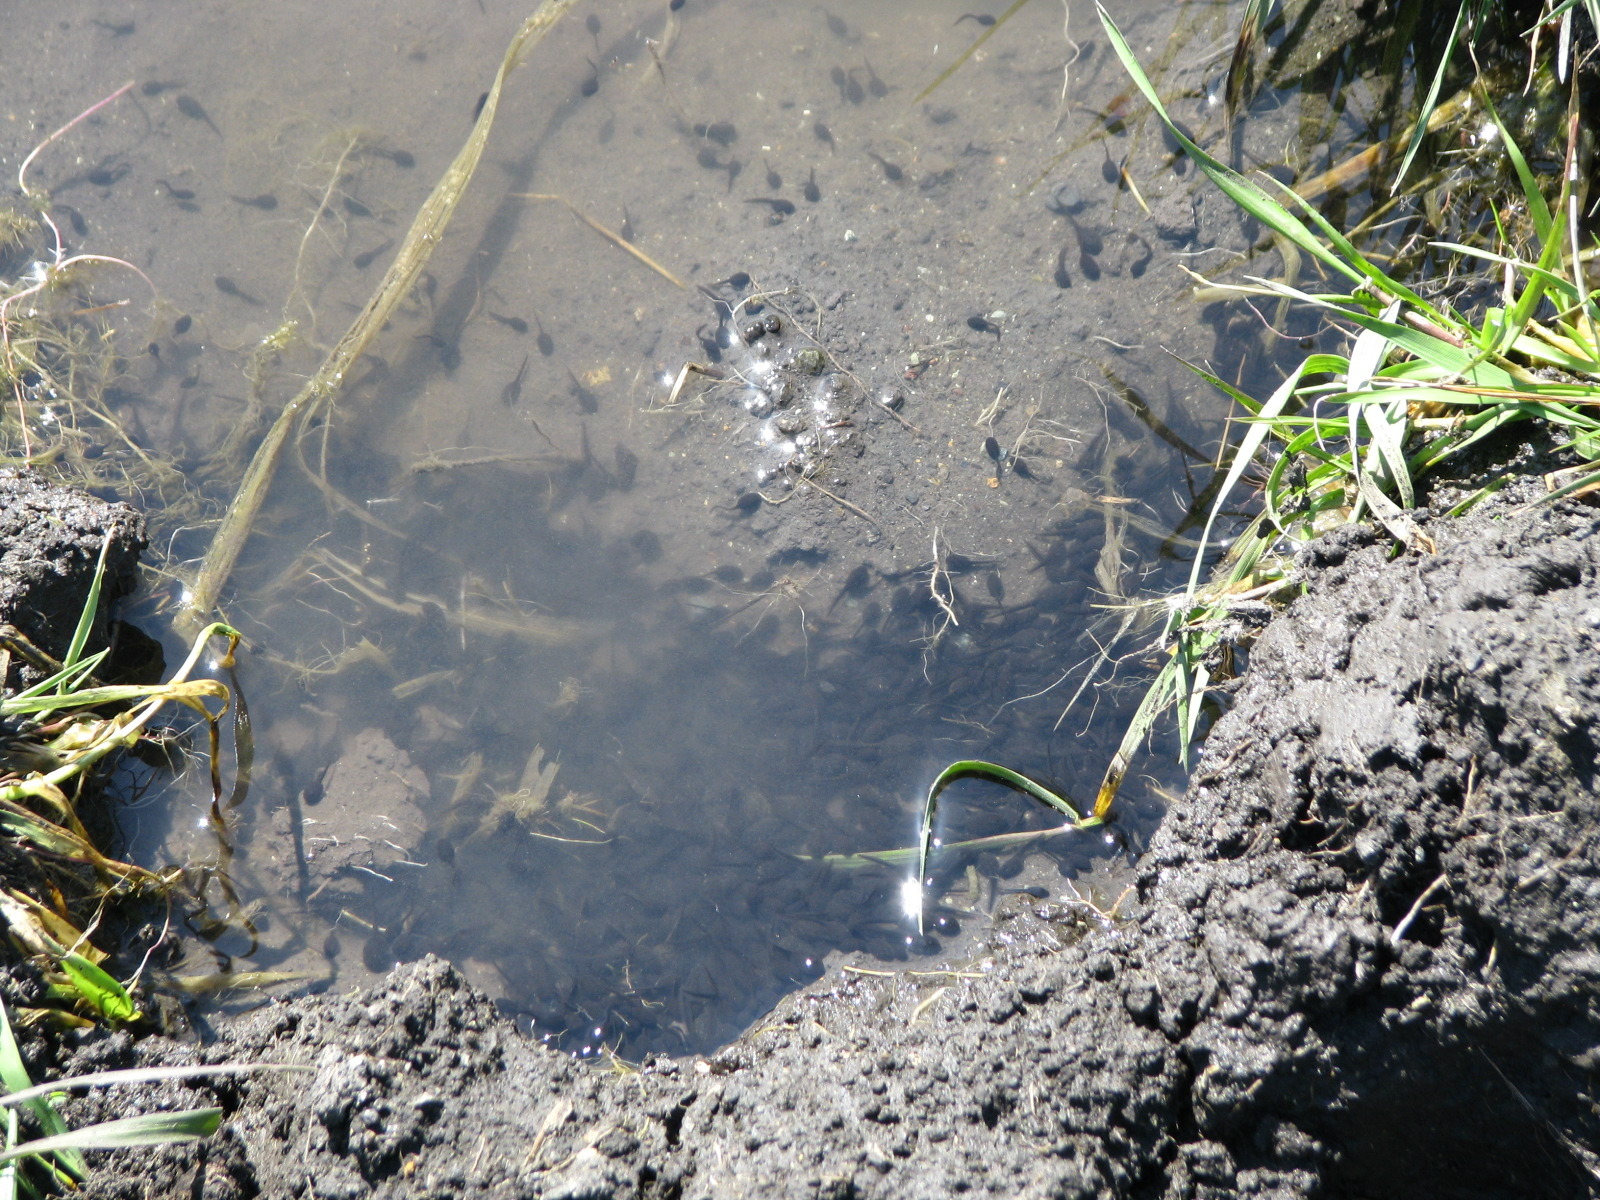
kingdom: Animalia
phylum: Chordata
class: Amphibia
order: Anura
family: Bufonidae
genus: Anaxyrus
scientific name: Anaxyrus boreas
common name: Western toad
